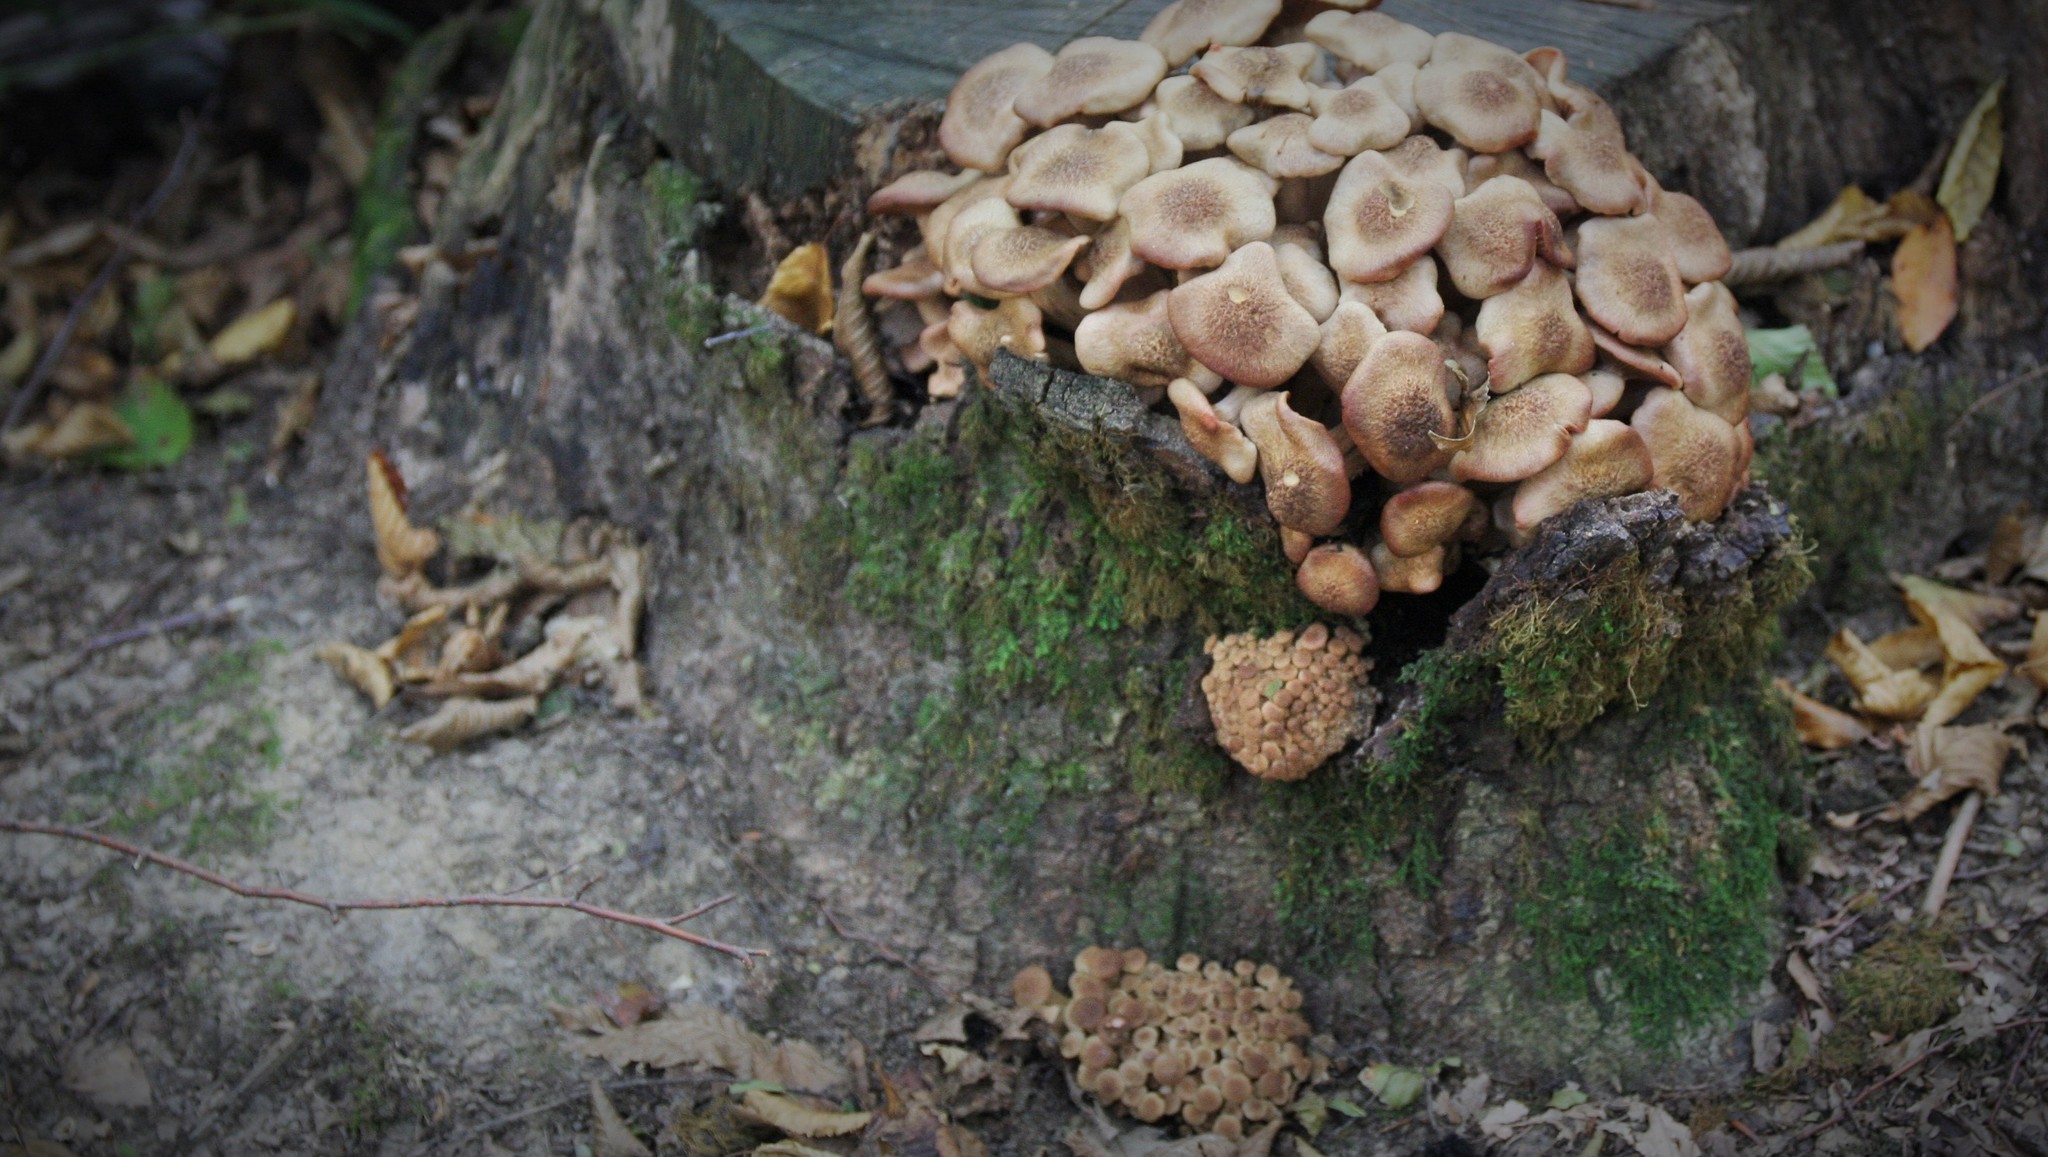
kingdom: Fungi
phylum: Basidiomycota
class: Agaricomycetes
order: Agaricales
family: Physalacriaceae
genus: Desarmillaria
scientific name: Desarmillaria tabescens
